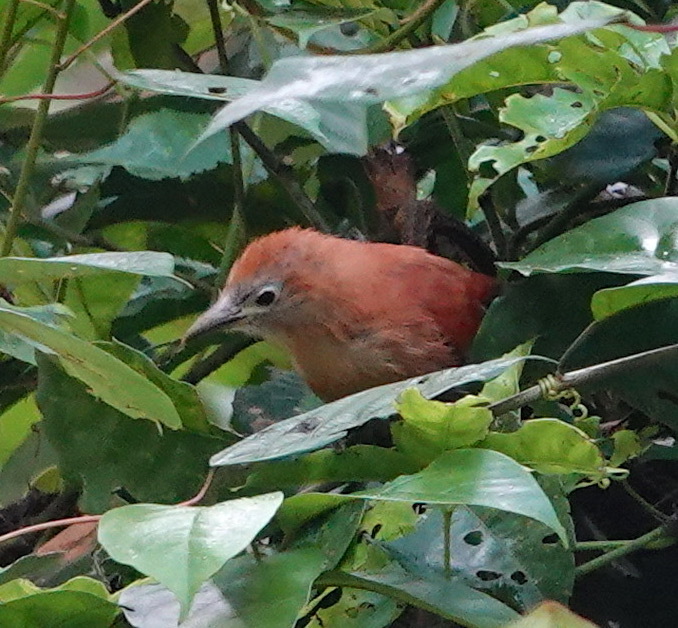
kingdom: Animalia
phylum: Chordata
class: Aves
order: Cuculiformes
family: Cuculidae
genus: Rhinortha
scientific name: Rhinortha chlorophaea
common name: Raffles's malkoha
